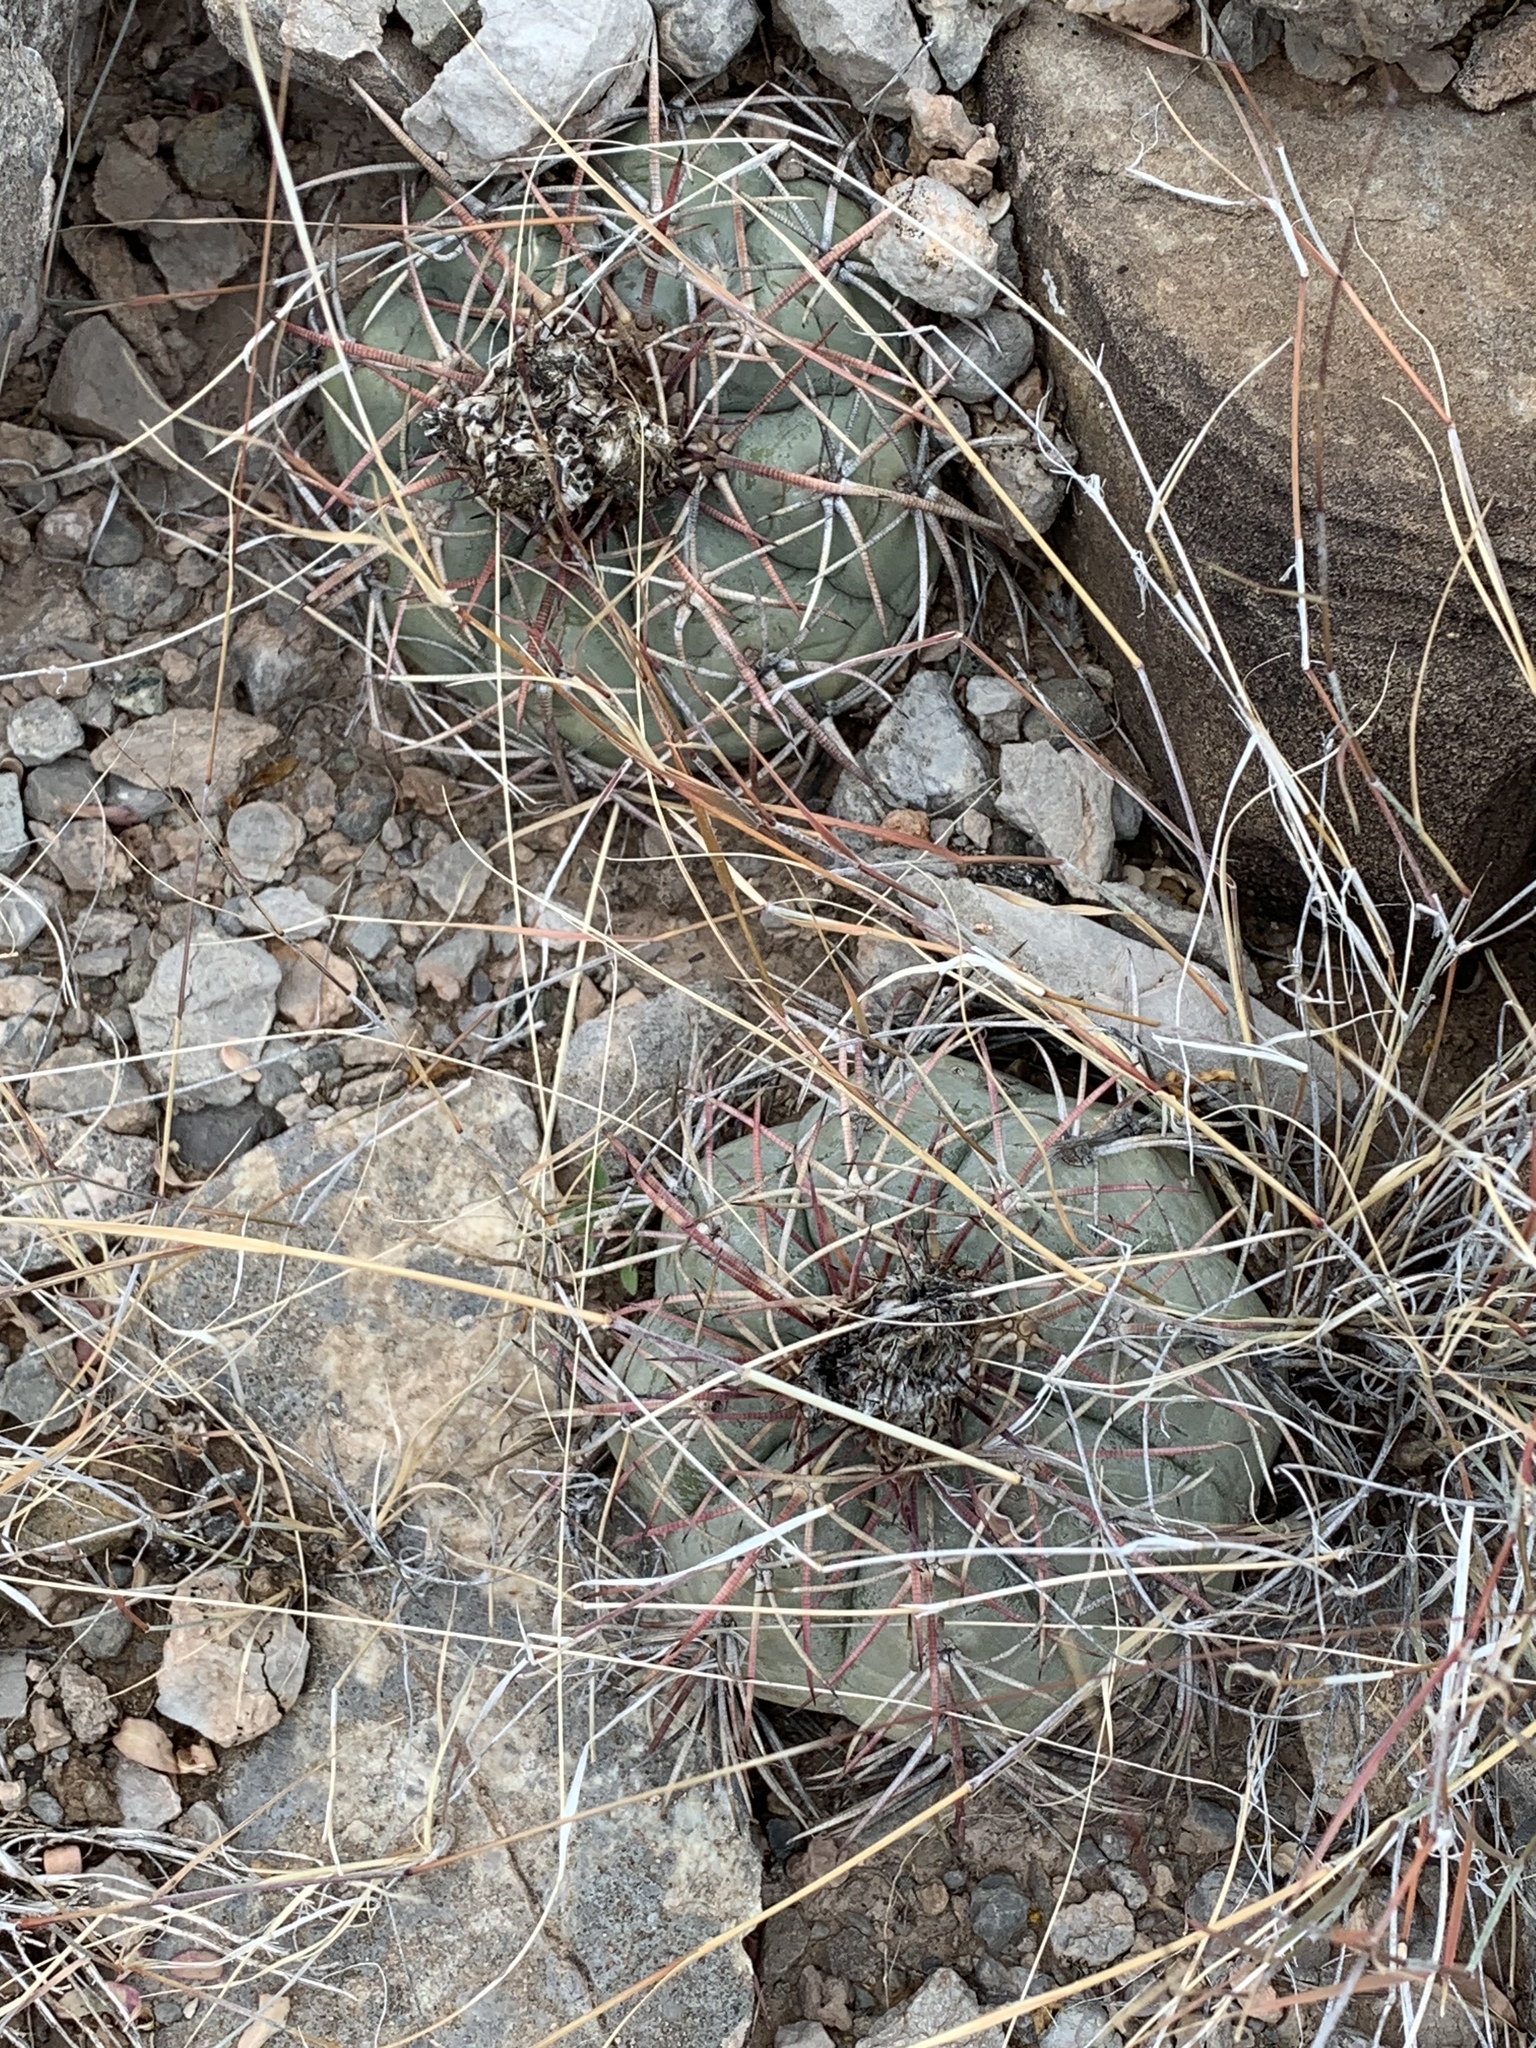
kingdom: Plantae
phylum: Tracheophyta
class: Magnoliopsida
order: Caryophyllales
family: Cactaceae
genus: Echinocactus
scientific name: Echinocactus horizonthalonius
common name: Devilshead
